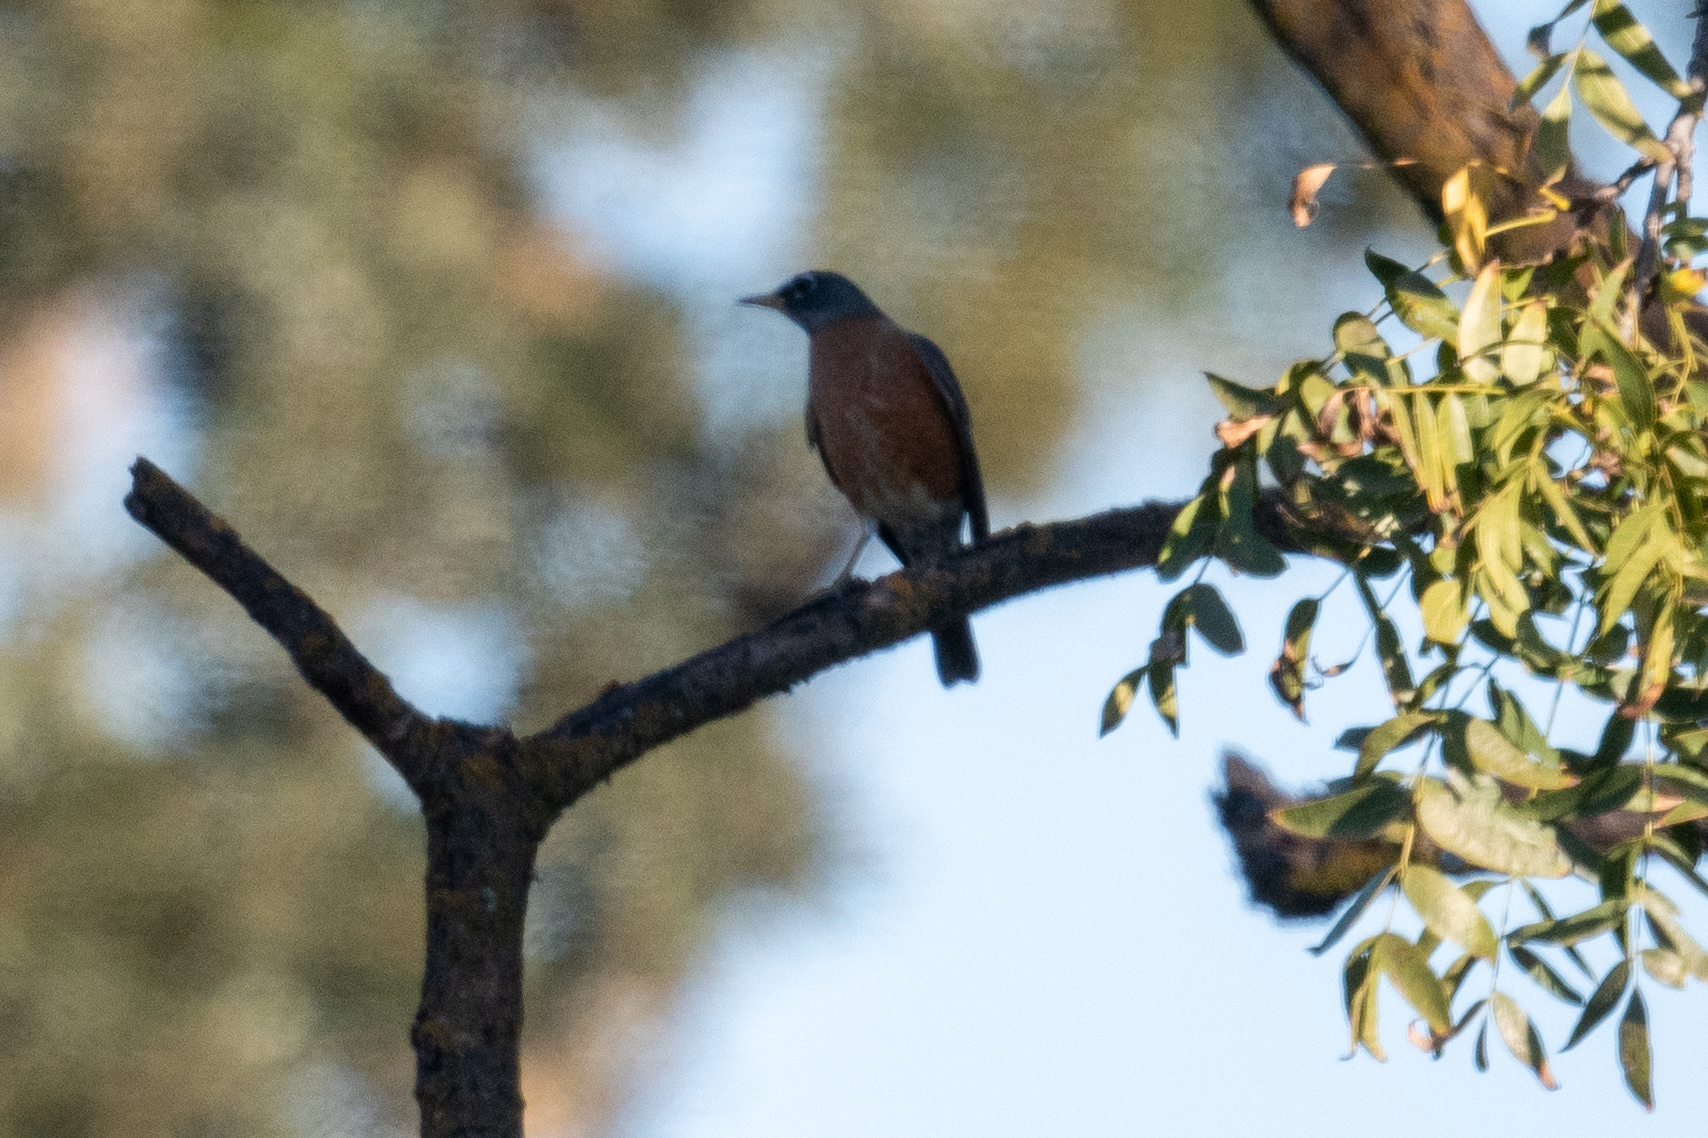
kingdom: Animalia
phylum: Chordata
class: Aves
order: Passeriformes
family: Turdidae
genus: Turdus
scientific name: Turdus migratorius
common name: American robin
